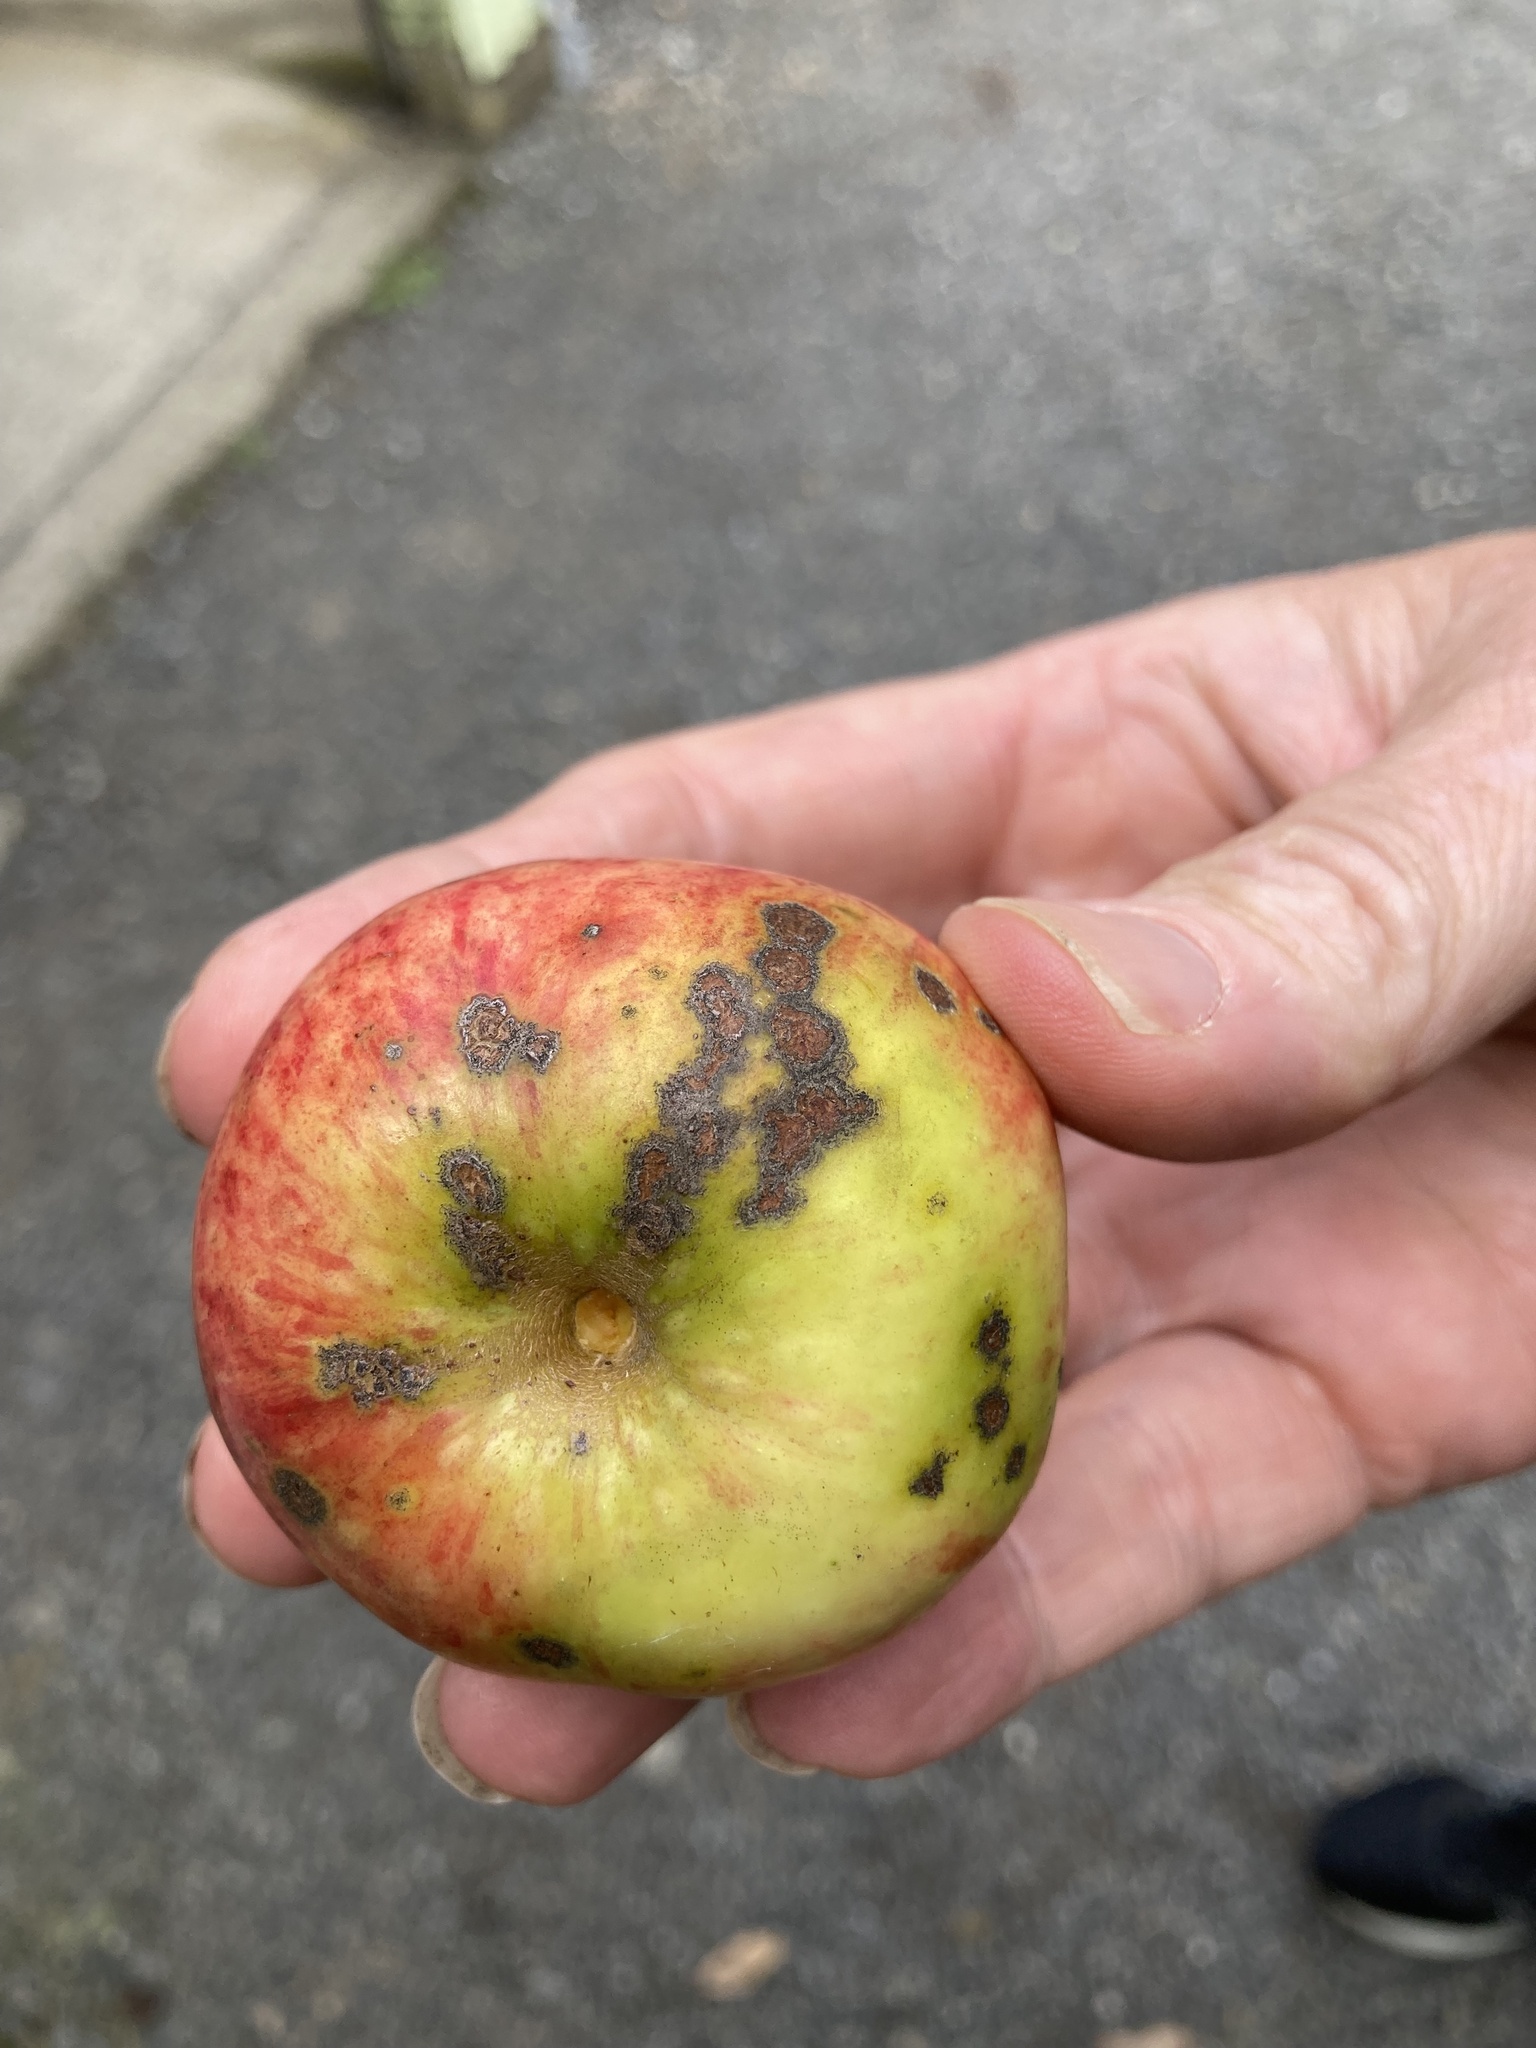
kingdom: Fungi
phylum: Ascomycota
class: Dothideomycetes
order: Venturiales
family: Venturiaceae
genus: Venturia
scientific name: Venturia inaequalis
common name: Apple scab
